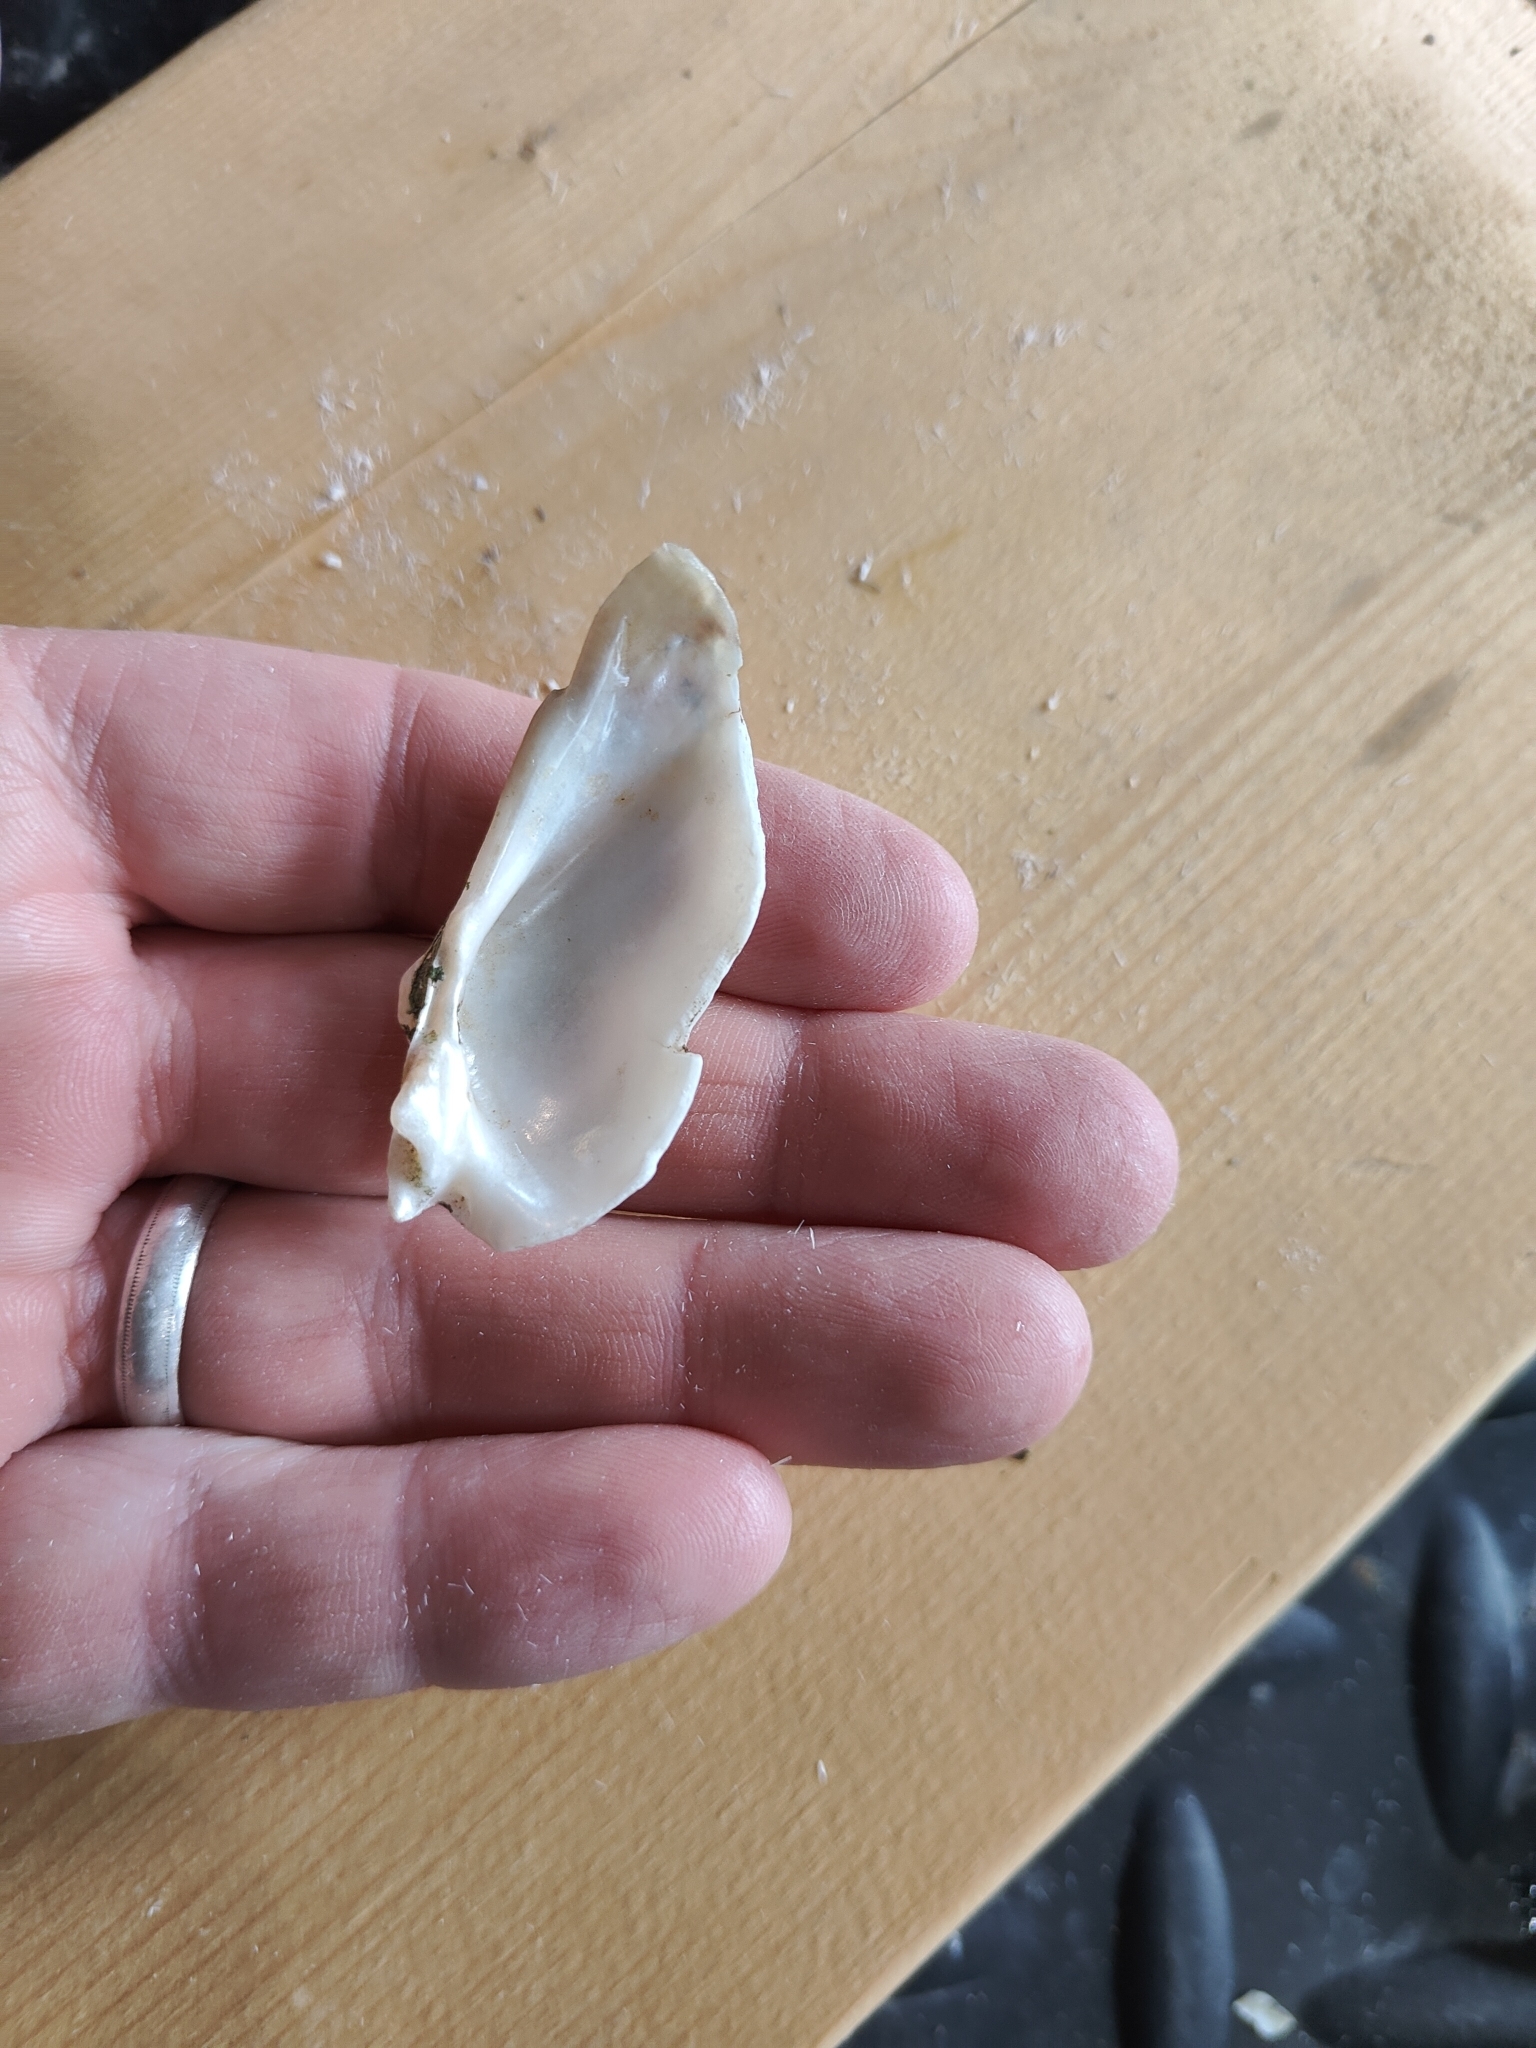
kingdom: Animalia
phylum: Mollusca
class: Bivalvia
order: Unionida
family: Unionidae
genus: Alasmidonta
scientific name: Alasmidonta marginata
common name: Elktoe
